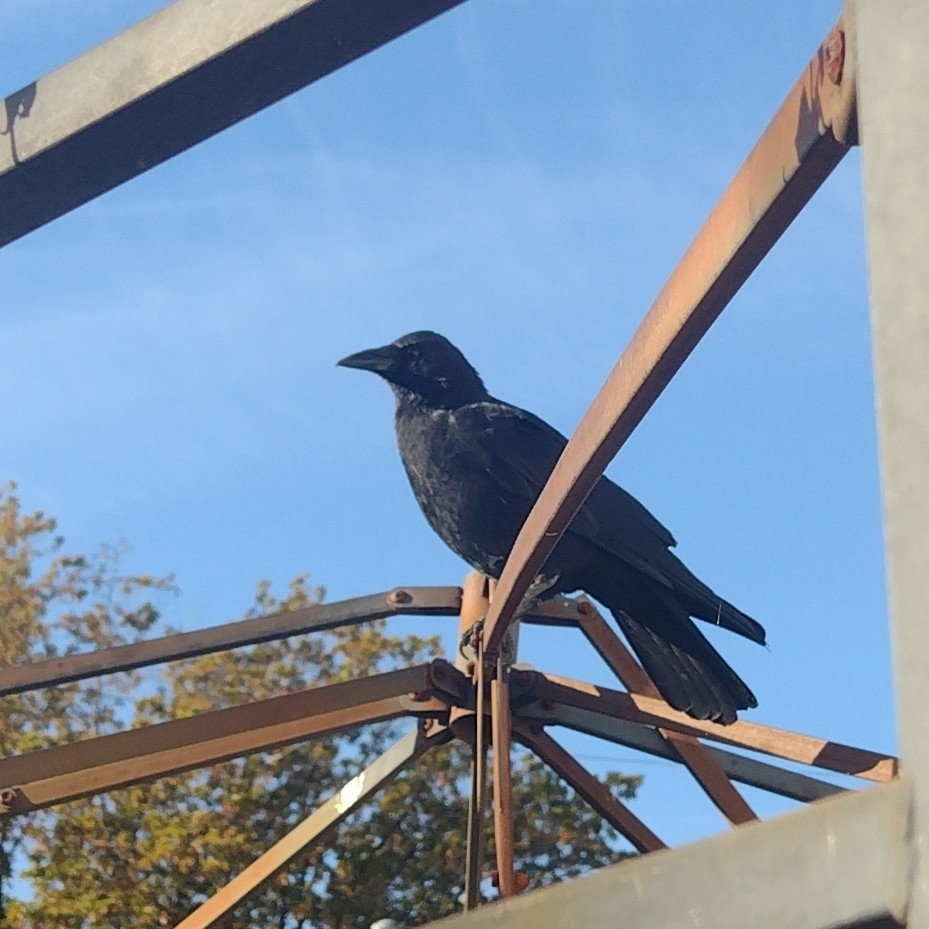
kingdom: Animalia
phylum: Chordata
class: Aves
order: Passeriformes
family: Corvidae
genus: Corvus
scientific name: Corvus brachyrhynchos
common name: American crow
